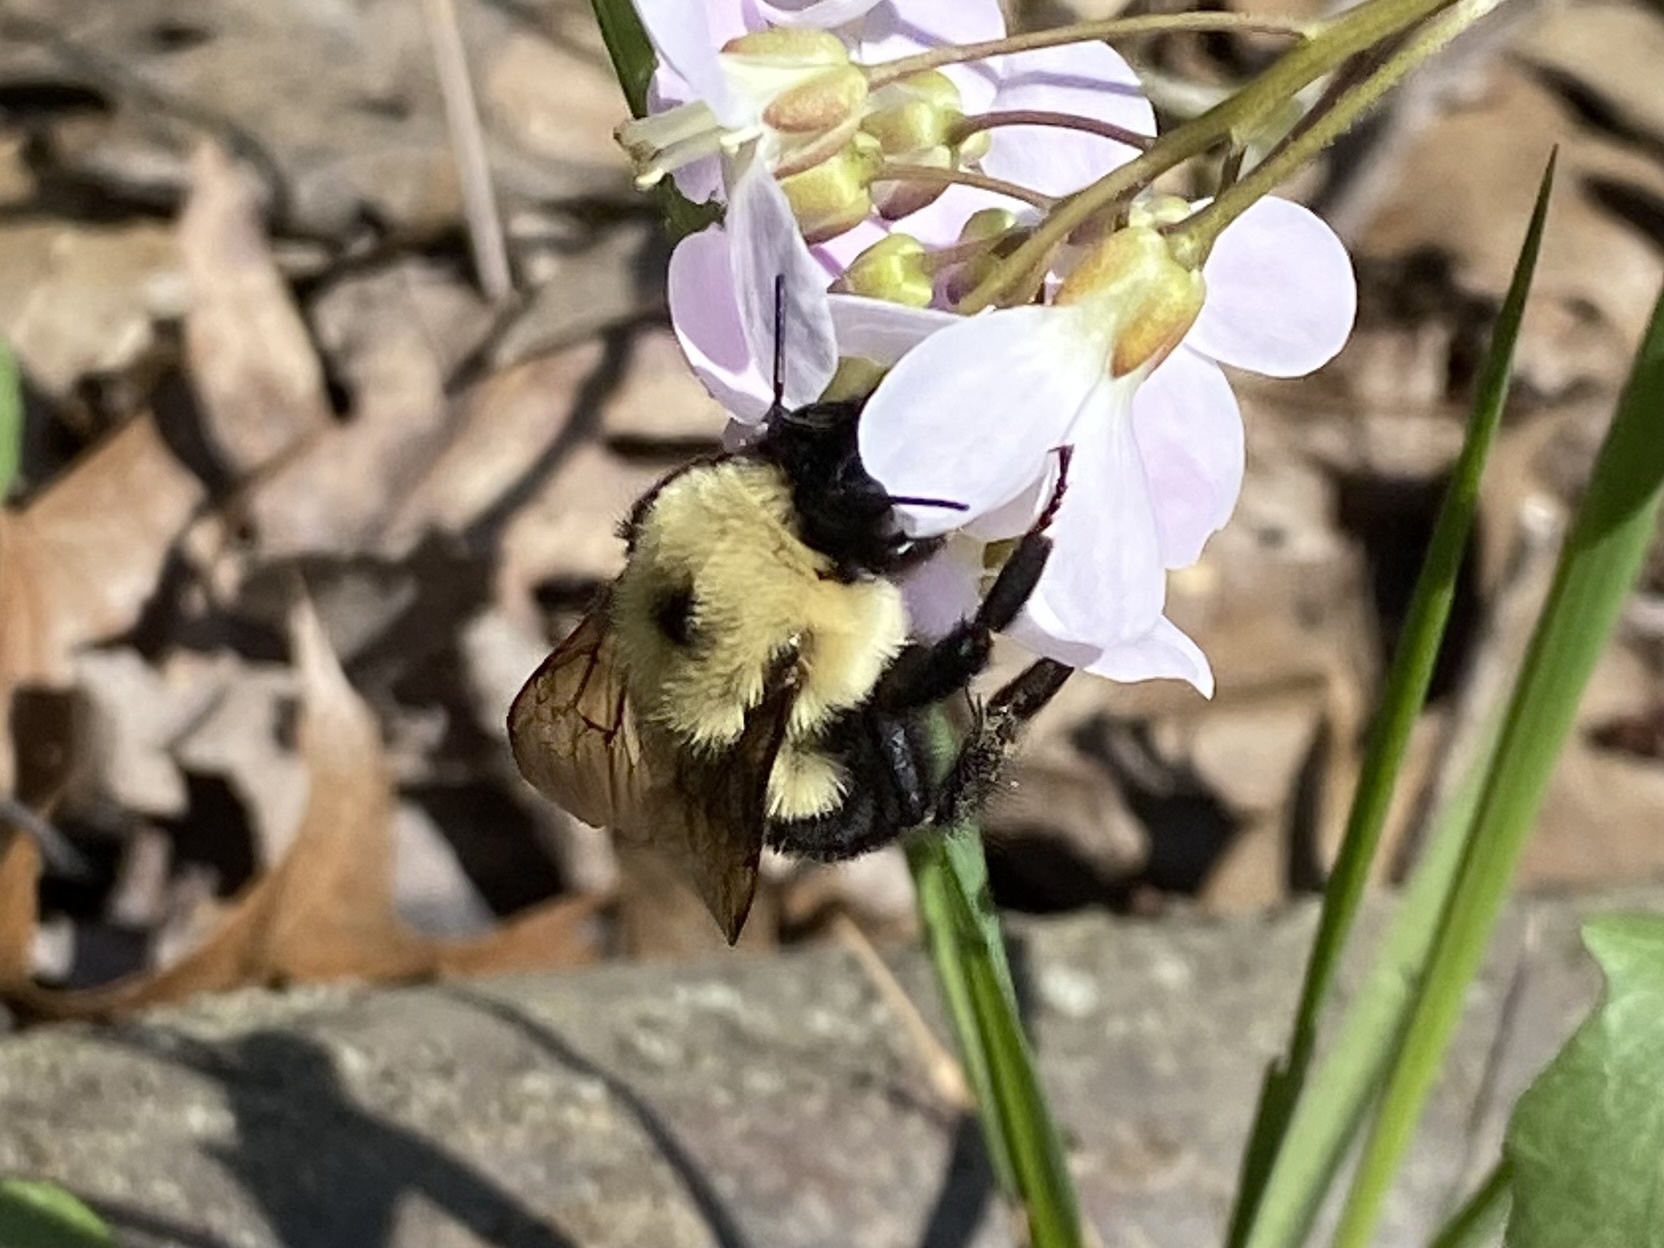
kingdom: Animalia
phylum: Arthropoda
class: Insecta
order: Hymenoptera
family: Apidae
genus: Bombus
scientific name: Bombus bimaculatus
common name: Two-spotted bumble bee
